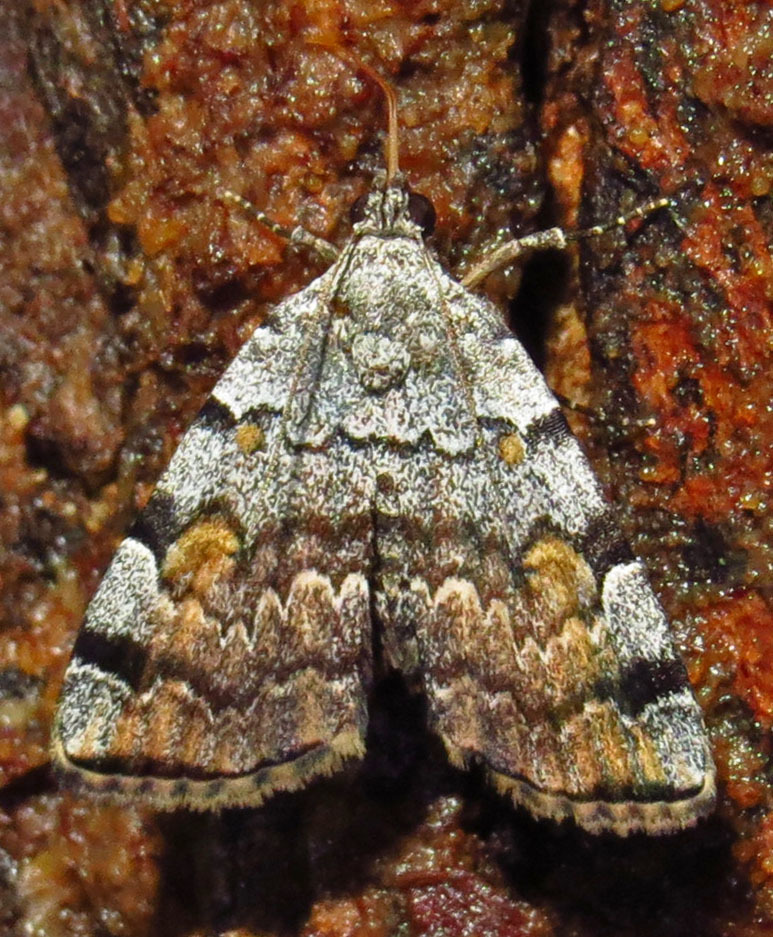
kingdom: Animalia
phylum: Arthropoda
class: Insecta
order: Lepidoptera
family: Erebidae
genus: Idia
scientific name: Idia americalis
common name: American idia moth
